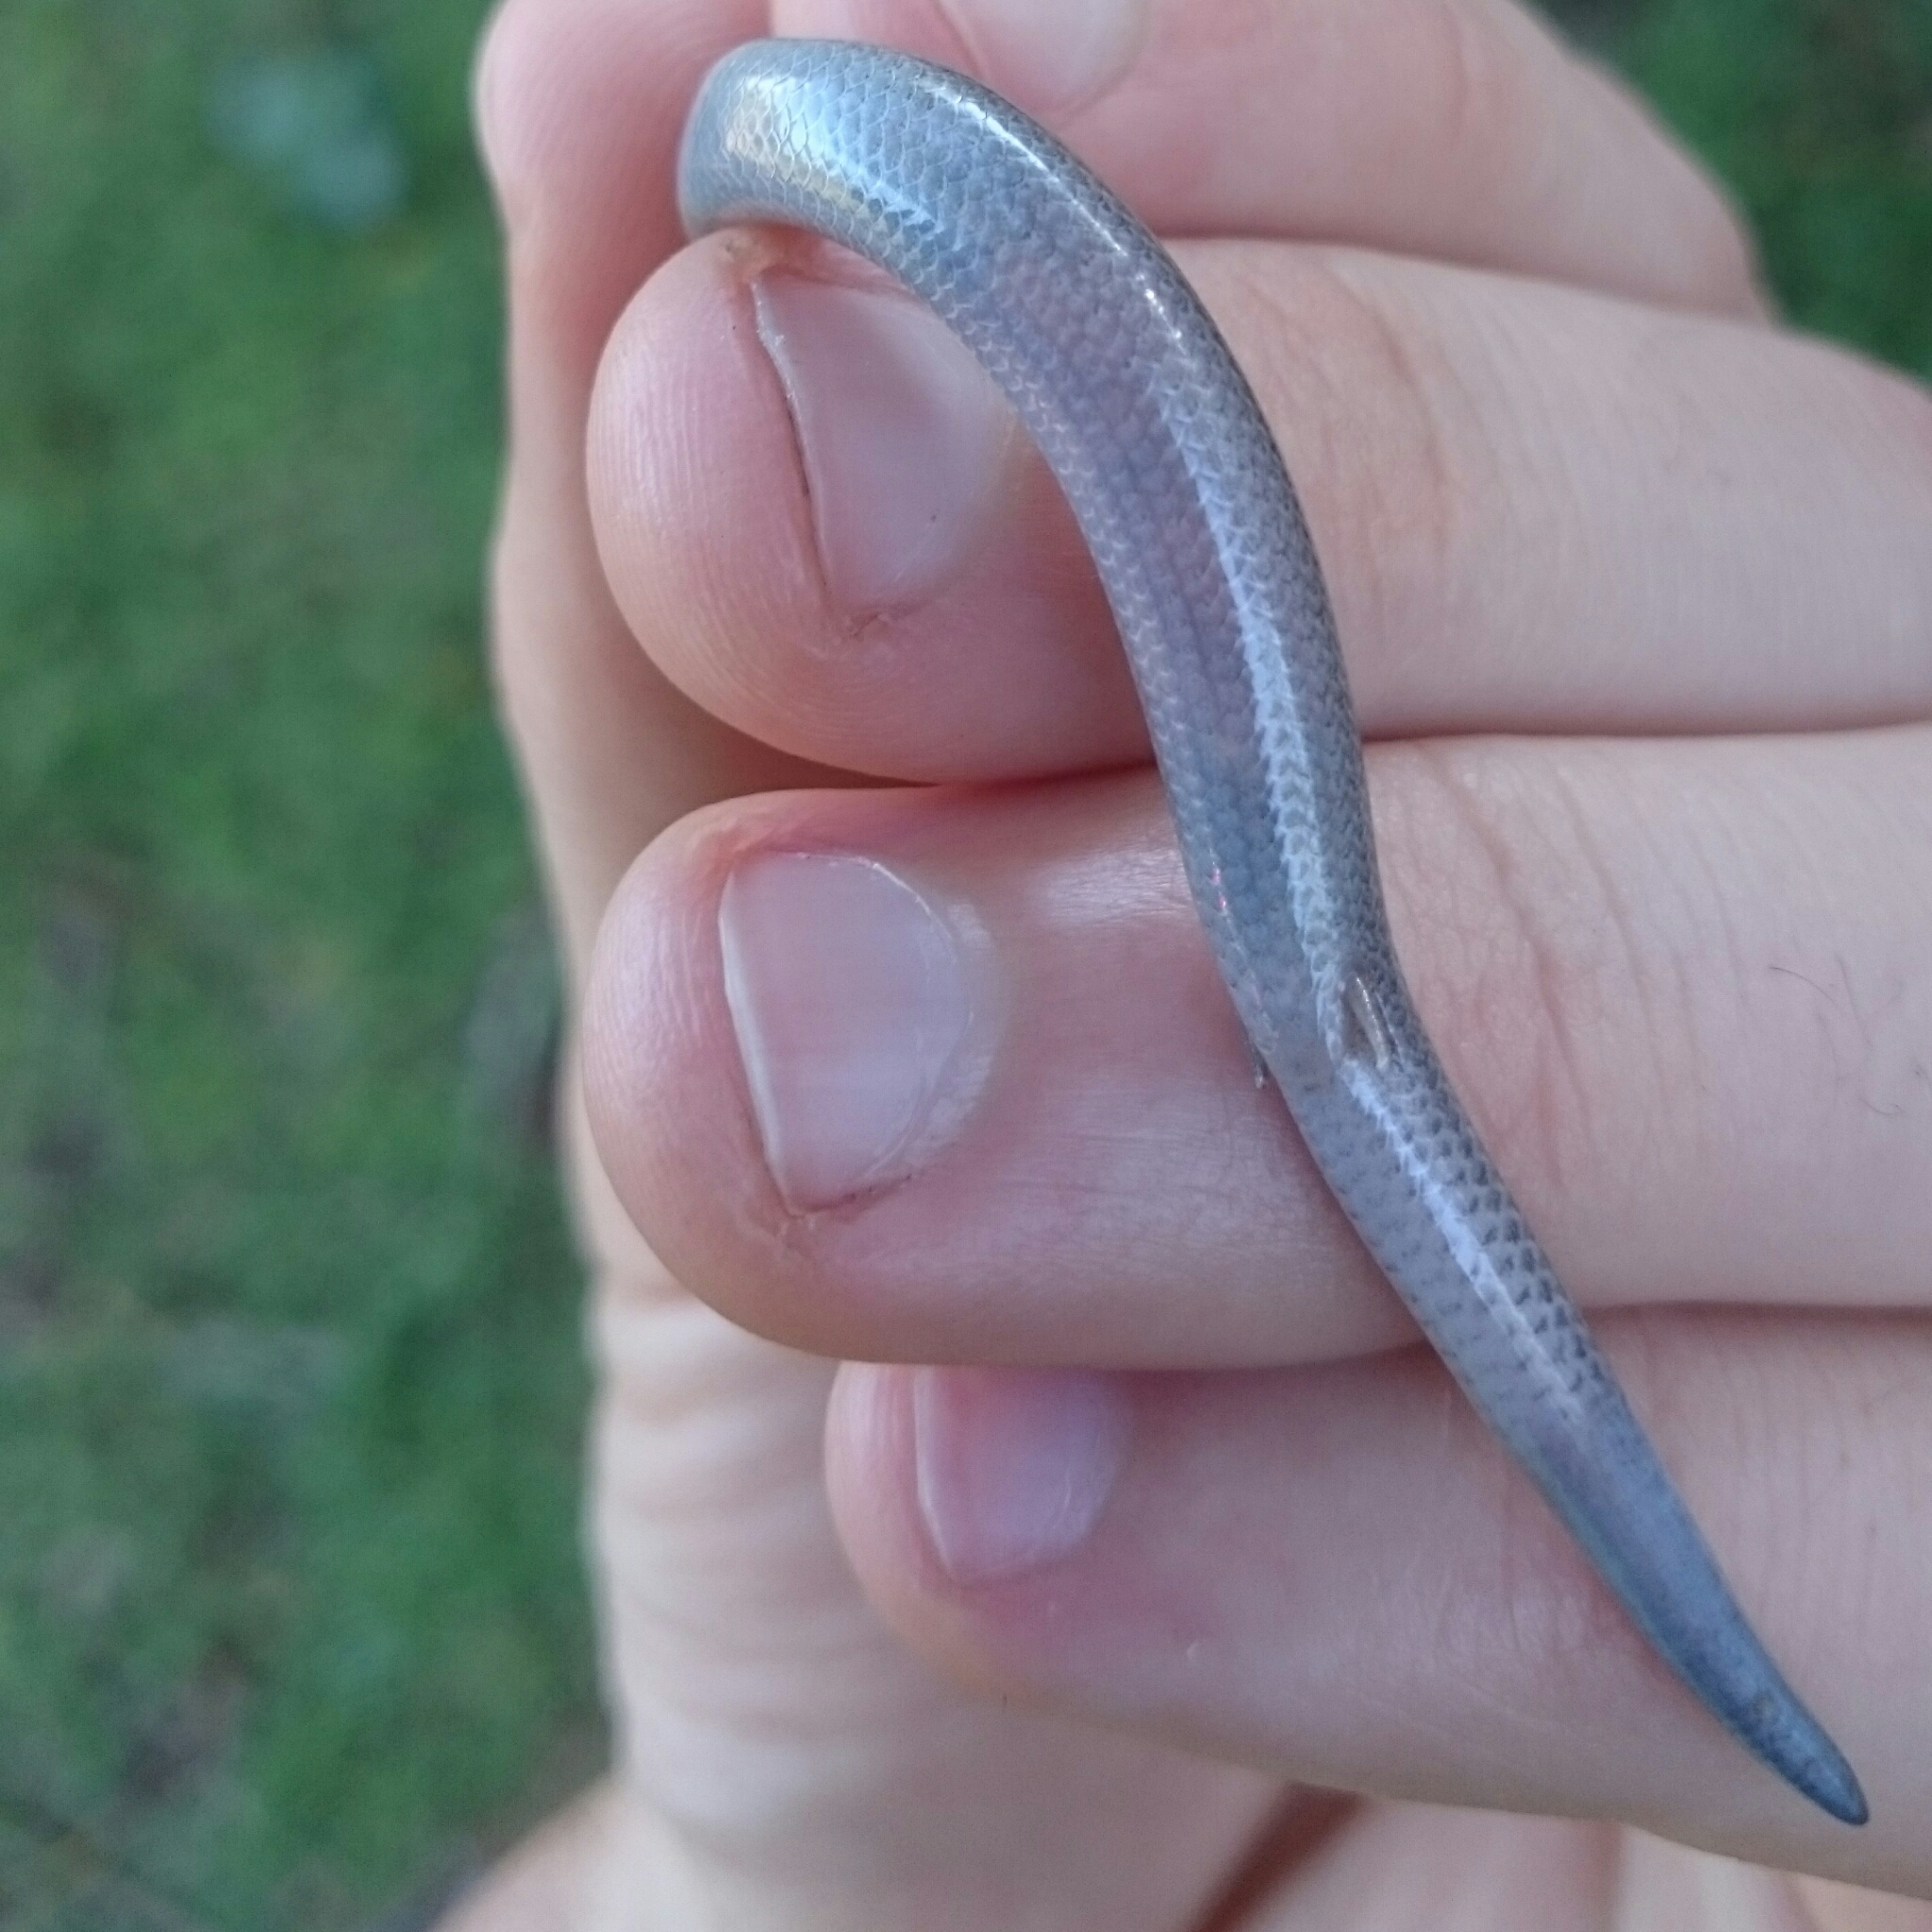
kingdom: Animalia
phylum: Chordata
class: Squamata
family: Scincidae
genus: Scelotes
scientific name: Scelotes bidigittatus
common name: Lowveld dwarf burrowing skink
